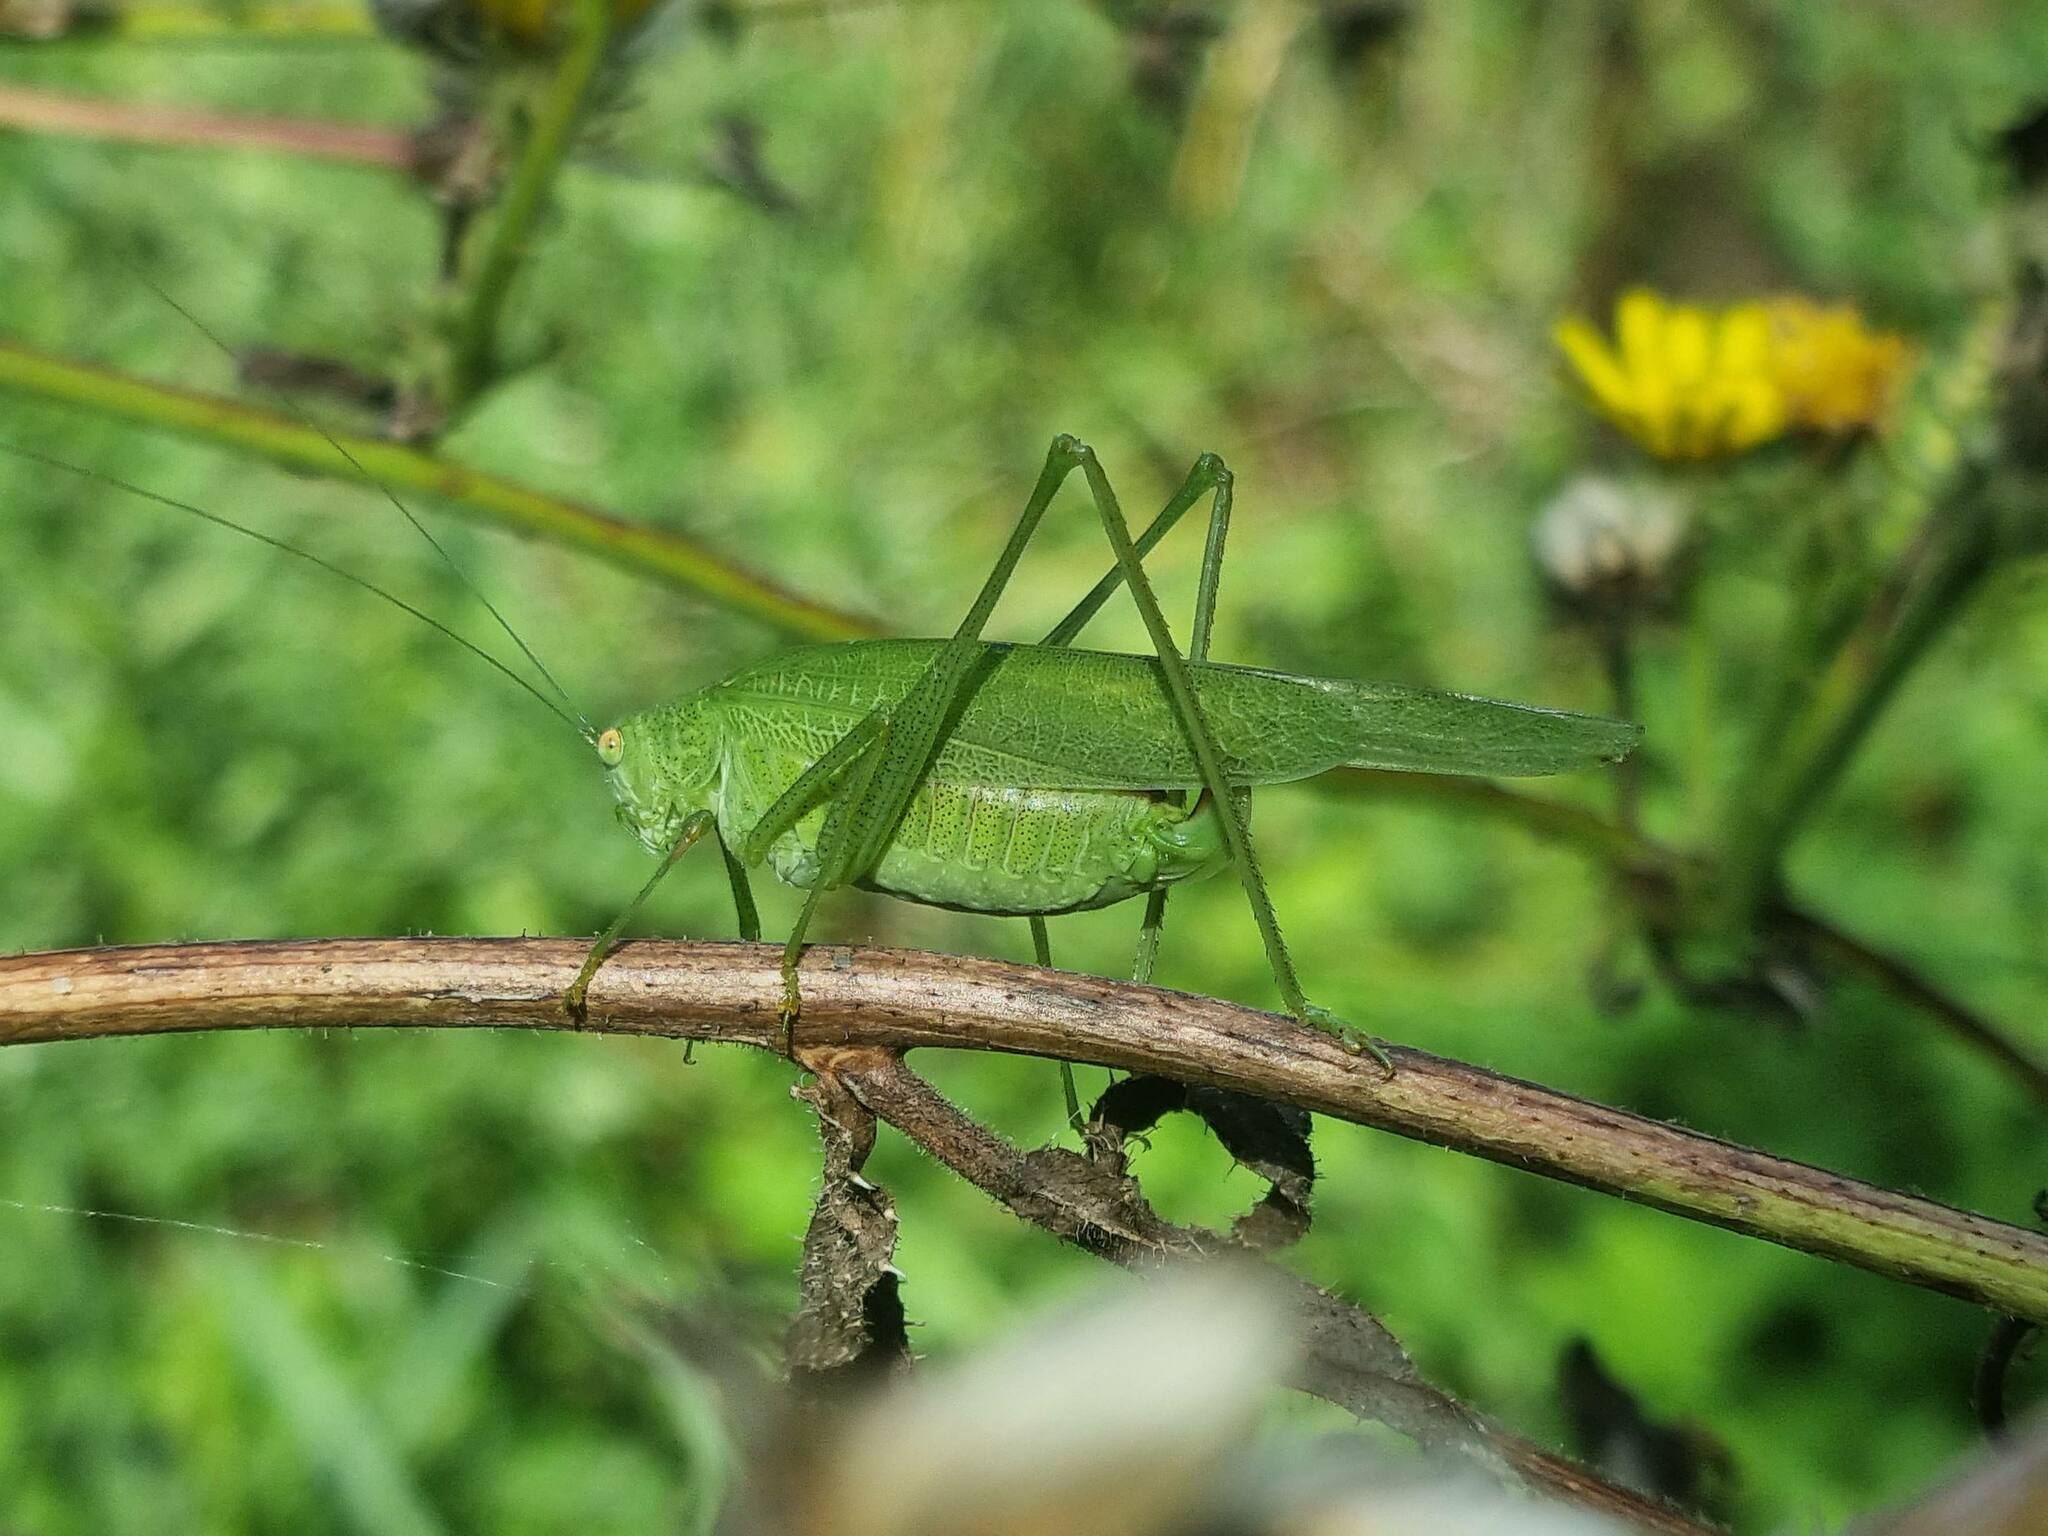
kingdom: Animalia
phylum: Arthropoda
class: Insecta
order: Orthoptera
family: Tettigoniidae
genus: Phaneroptera
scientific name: Phaneroptera nana
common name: Southern sickle bush-cricket
